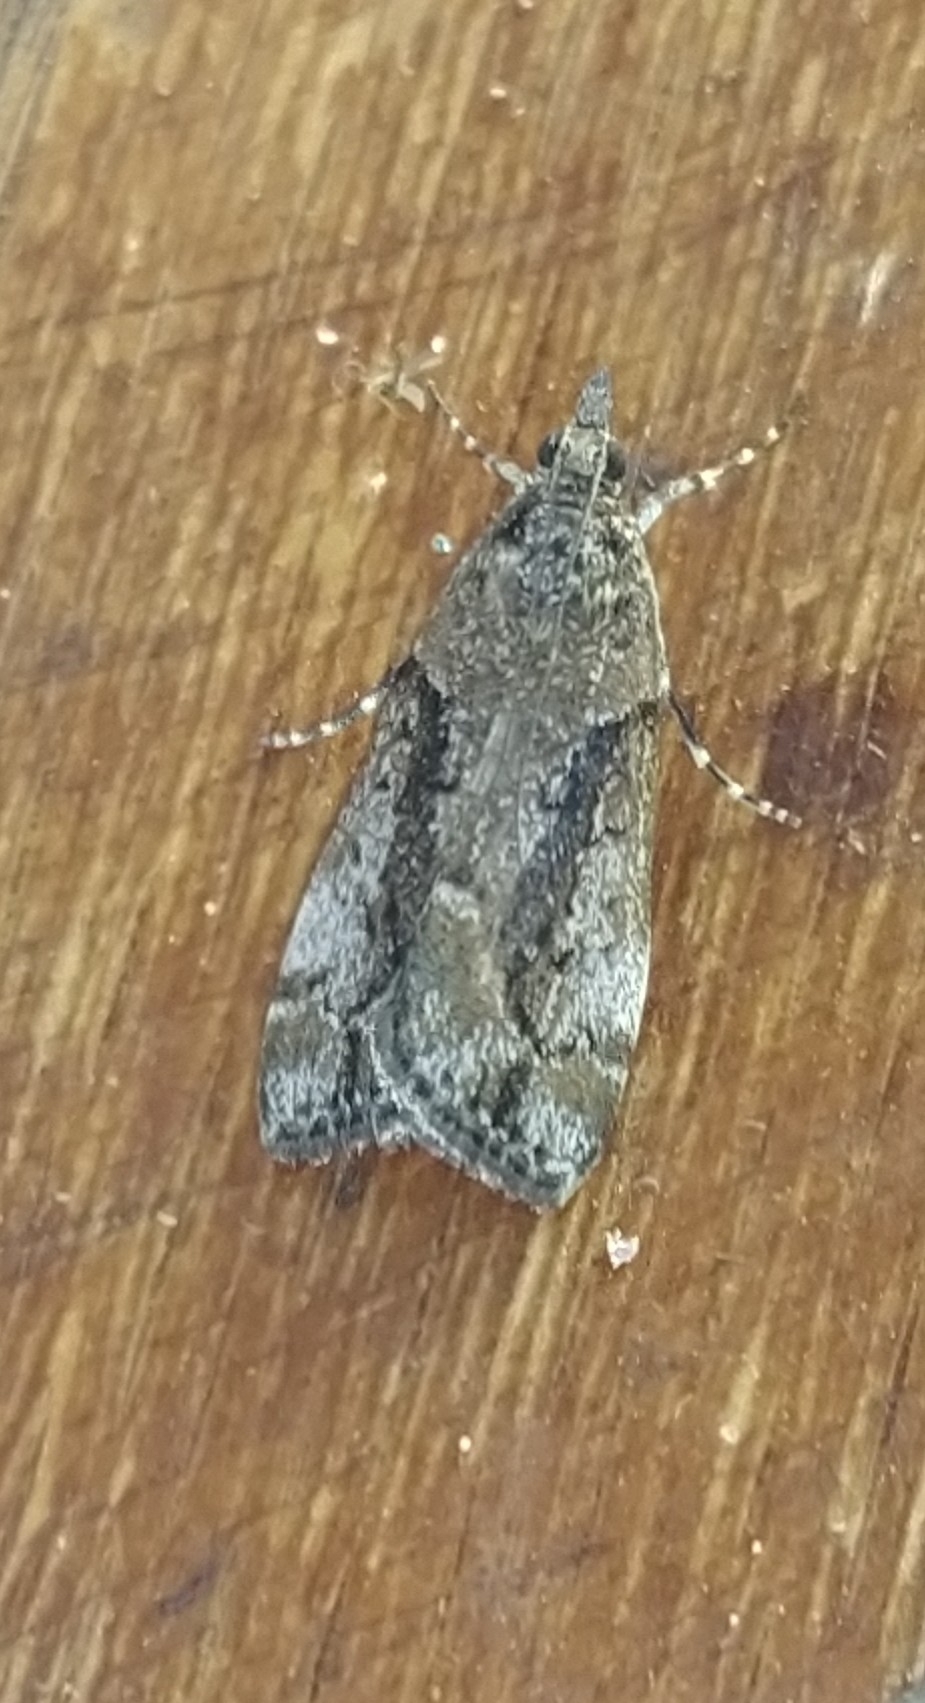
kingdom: Animalia
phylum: Arthropoda
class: Insecta
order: Lepidoptera
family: Crambidae
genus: Eudonia
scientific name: Eudonia submarginalis
